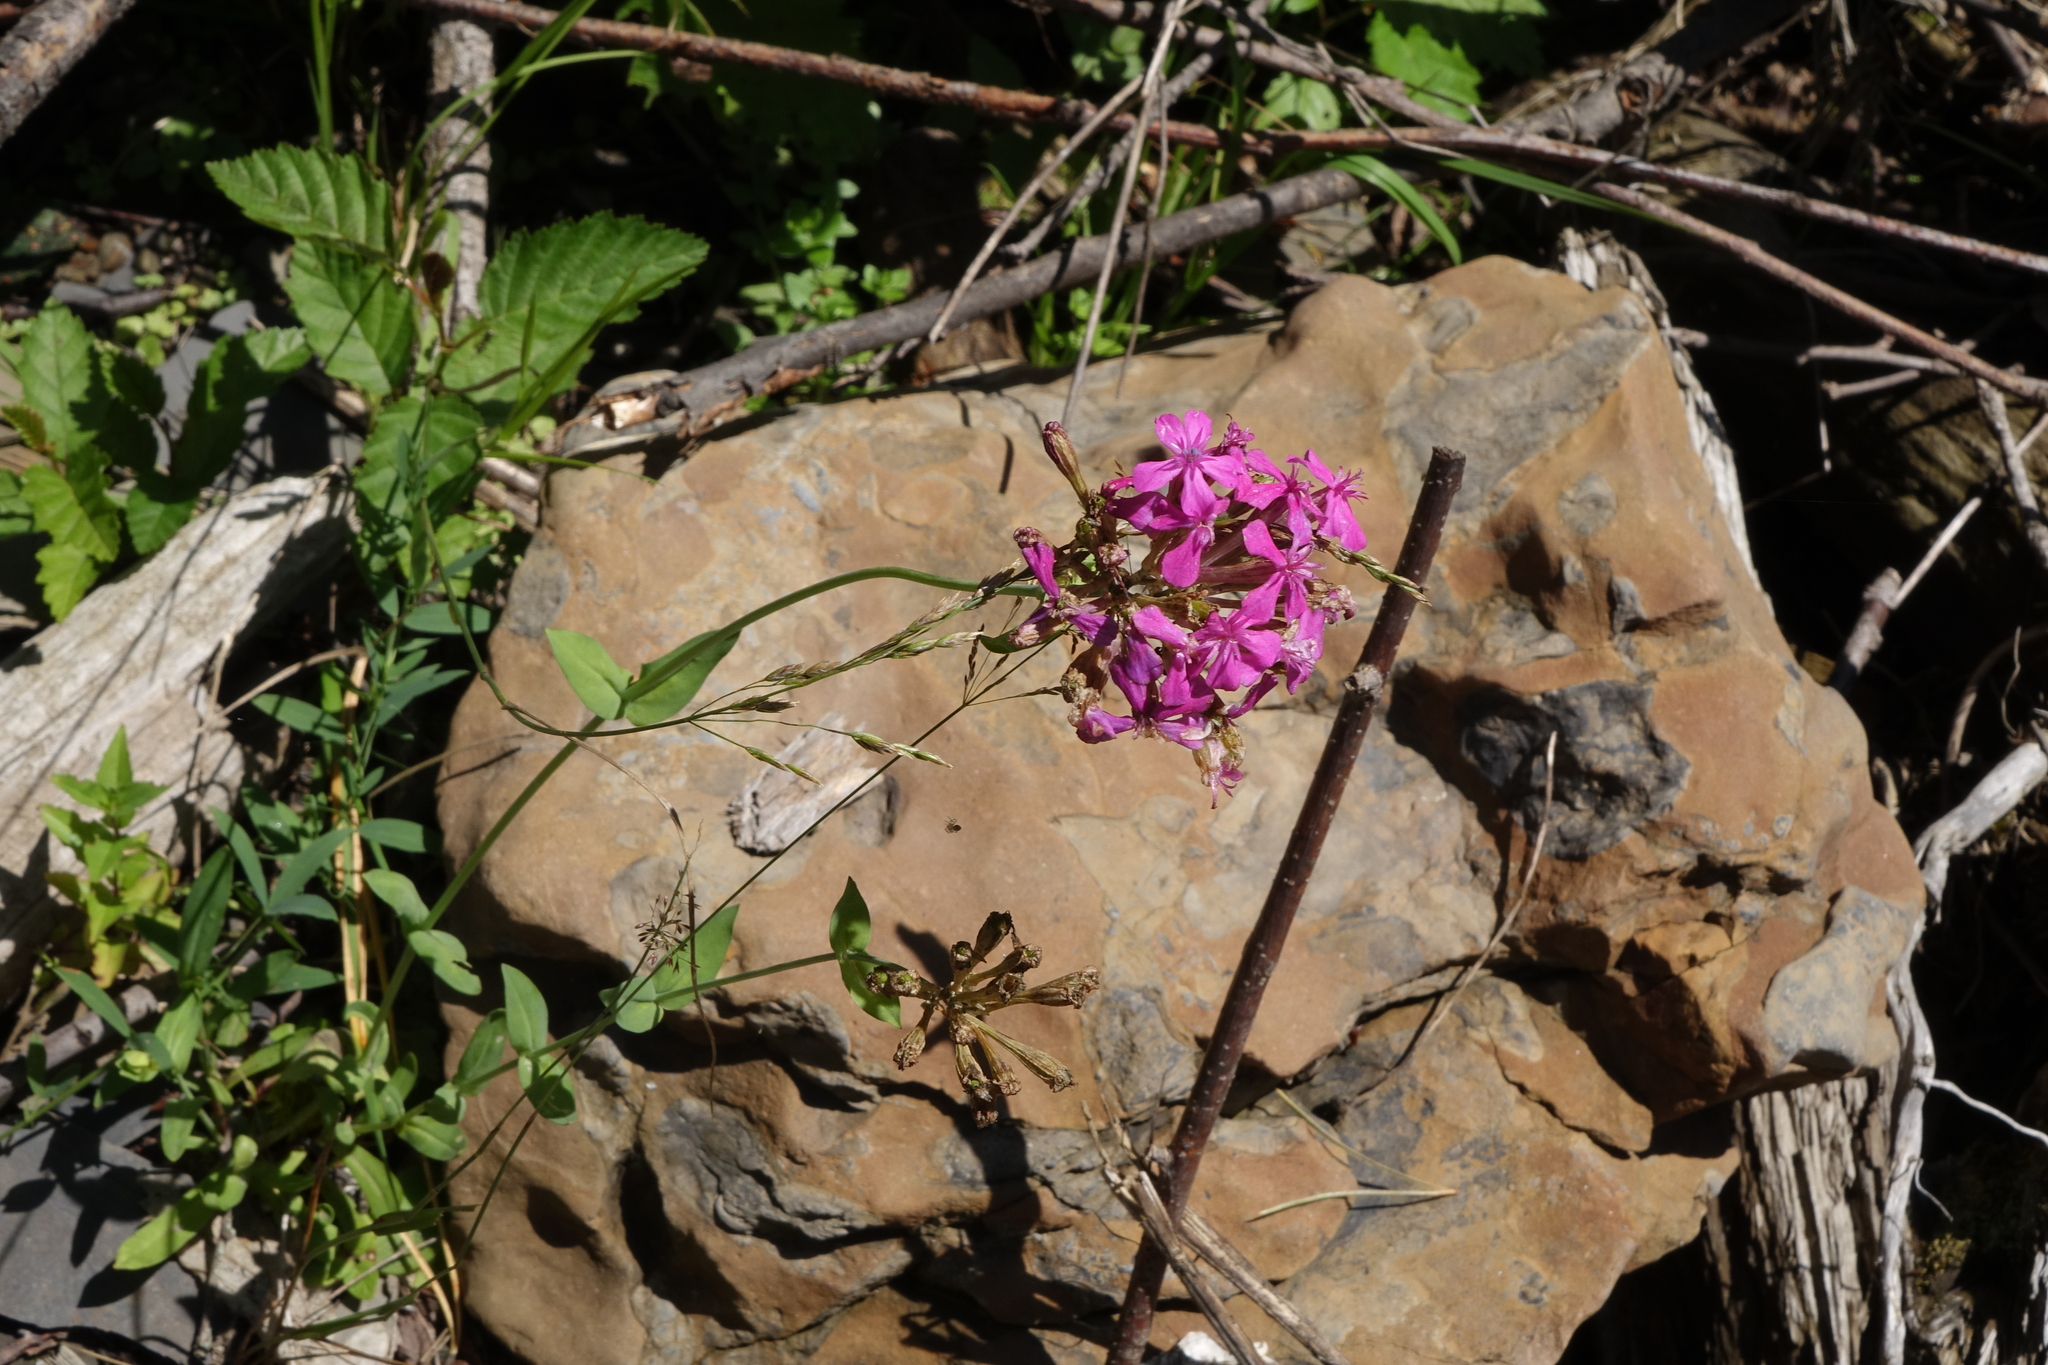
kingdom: Plantae
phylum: Tracheophyta
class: Magnoliopsida
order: Caryophyllales
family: Caryophyllaceae
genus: Atocion
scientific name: Atocion compactum
